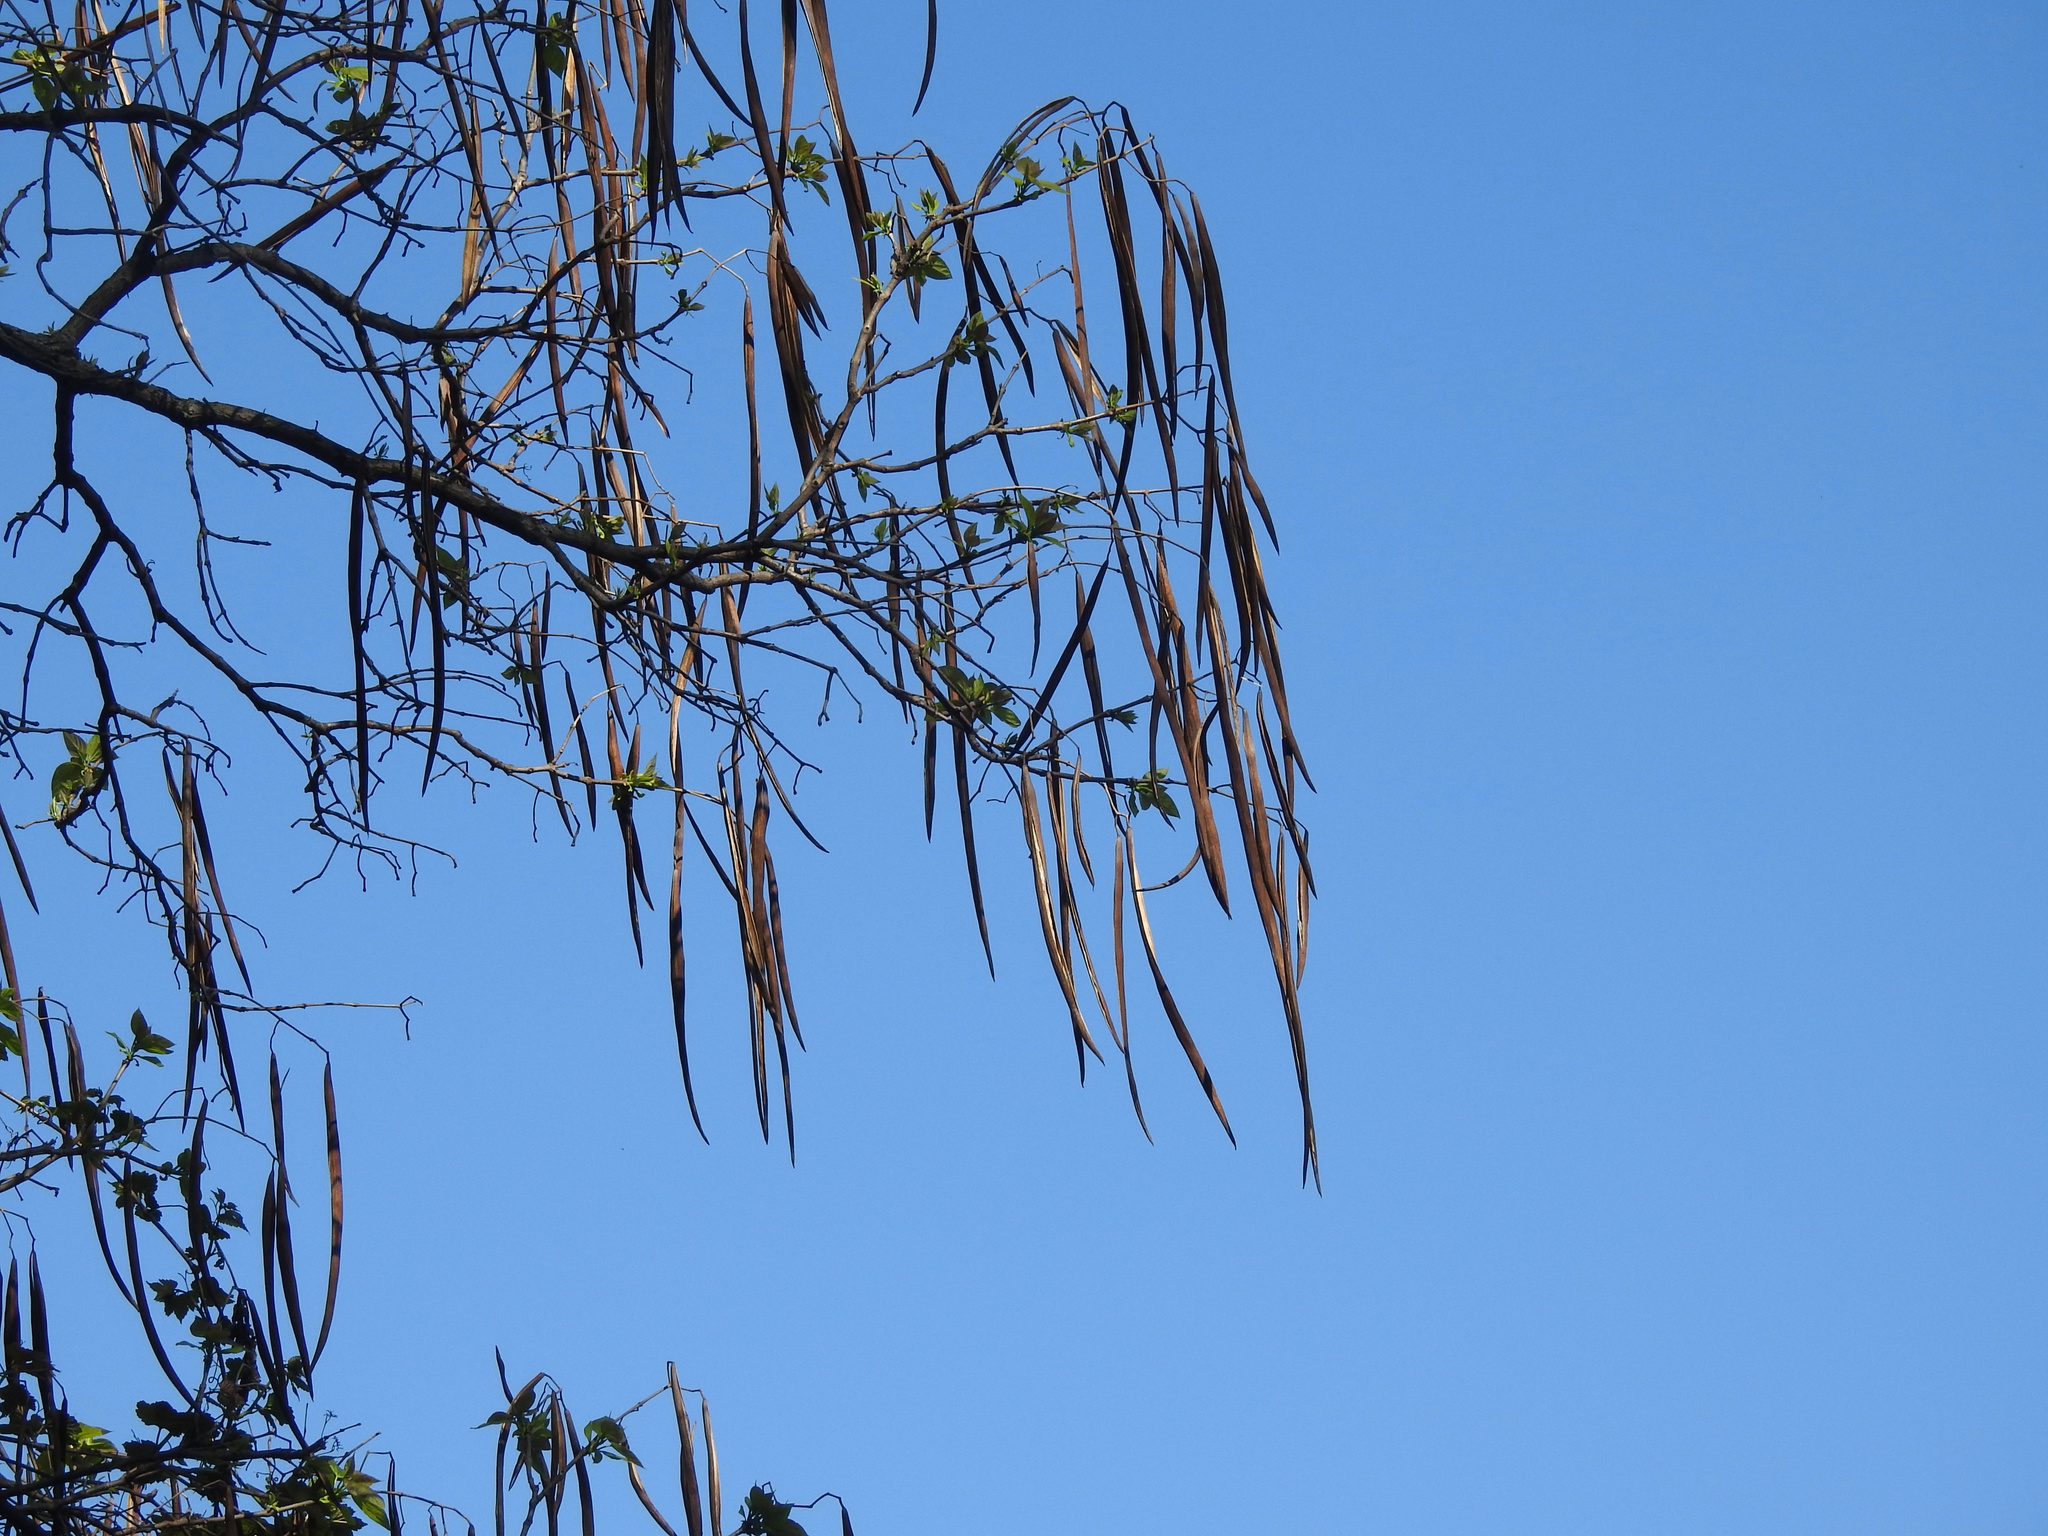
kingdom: Plantae
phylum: Tracheophyta
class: Magnoliopsida
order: Lamiales
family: Bignoniaceae
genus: Catalpa
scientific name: Catalpa
